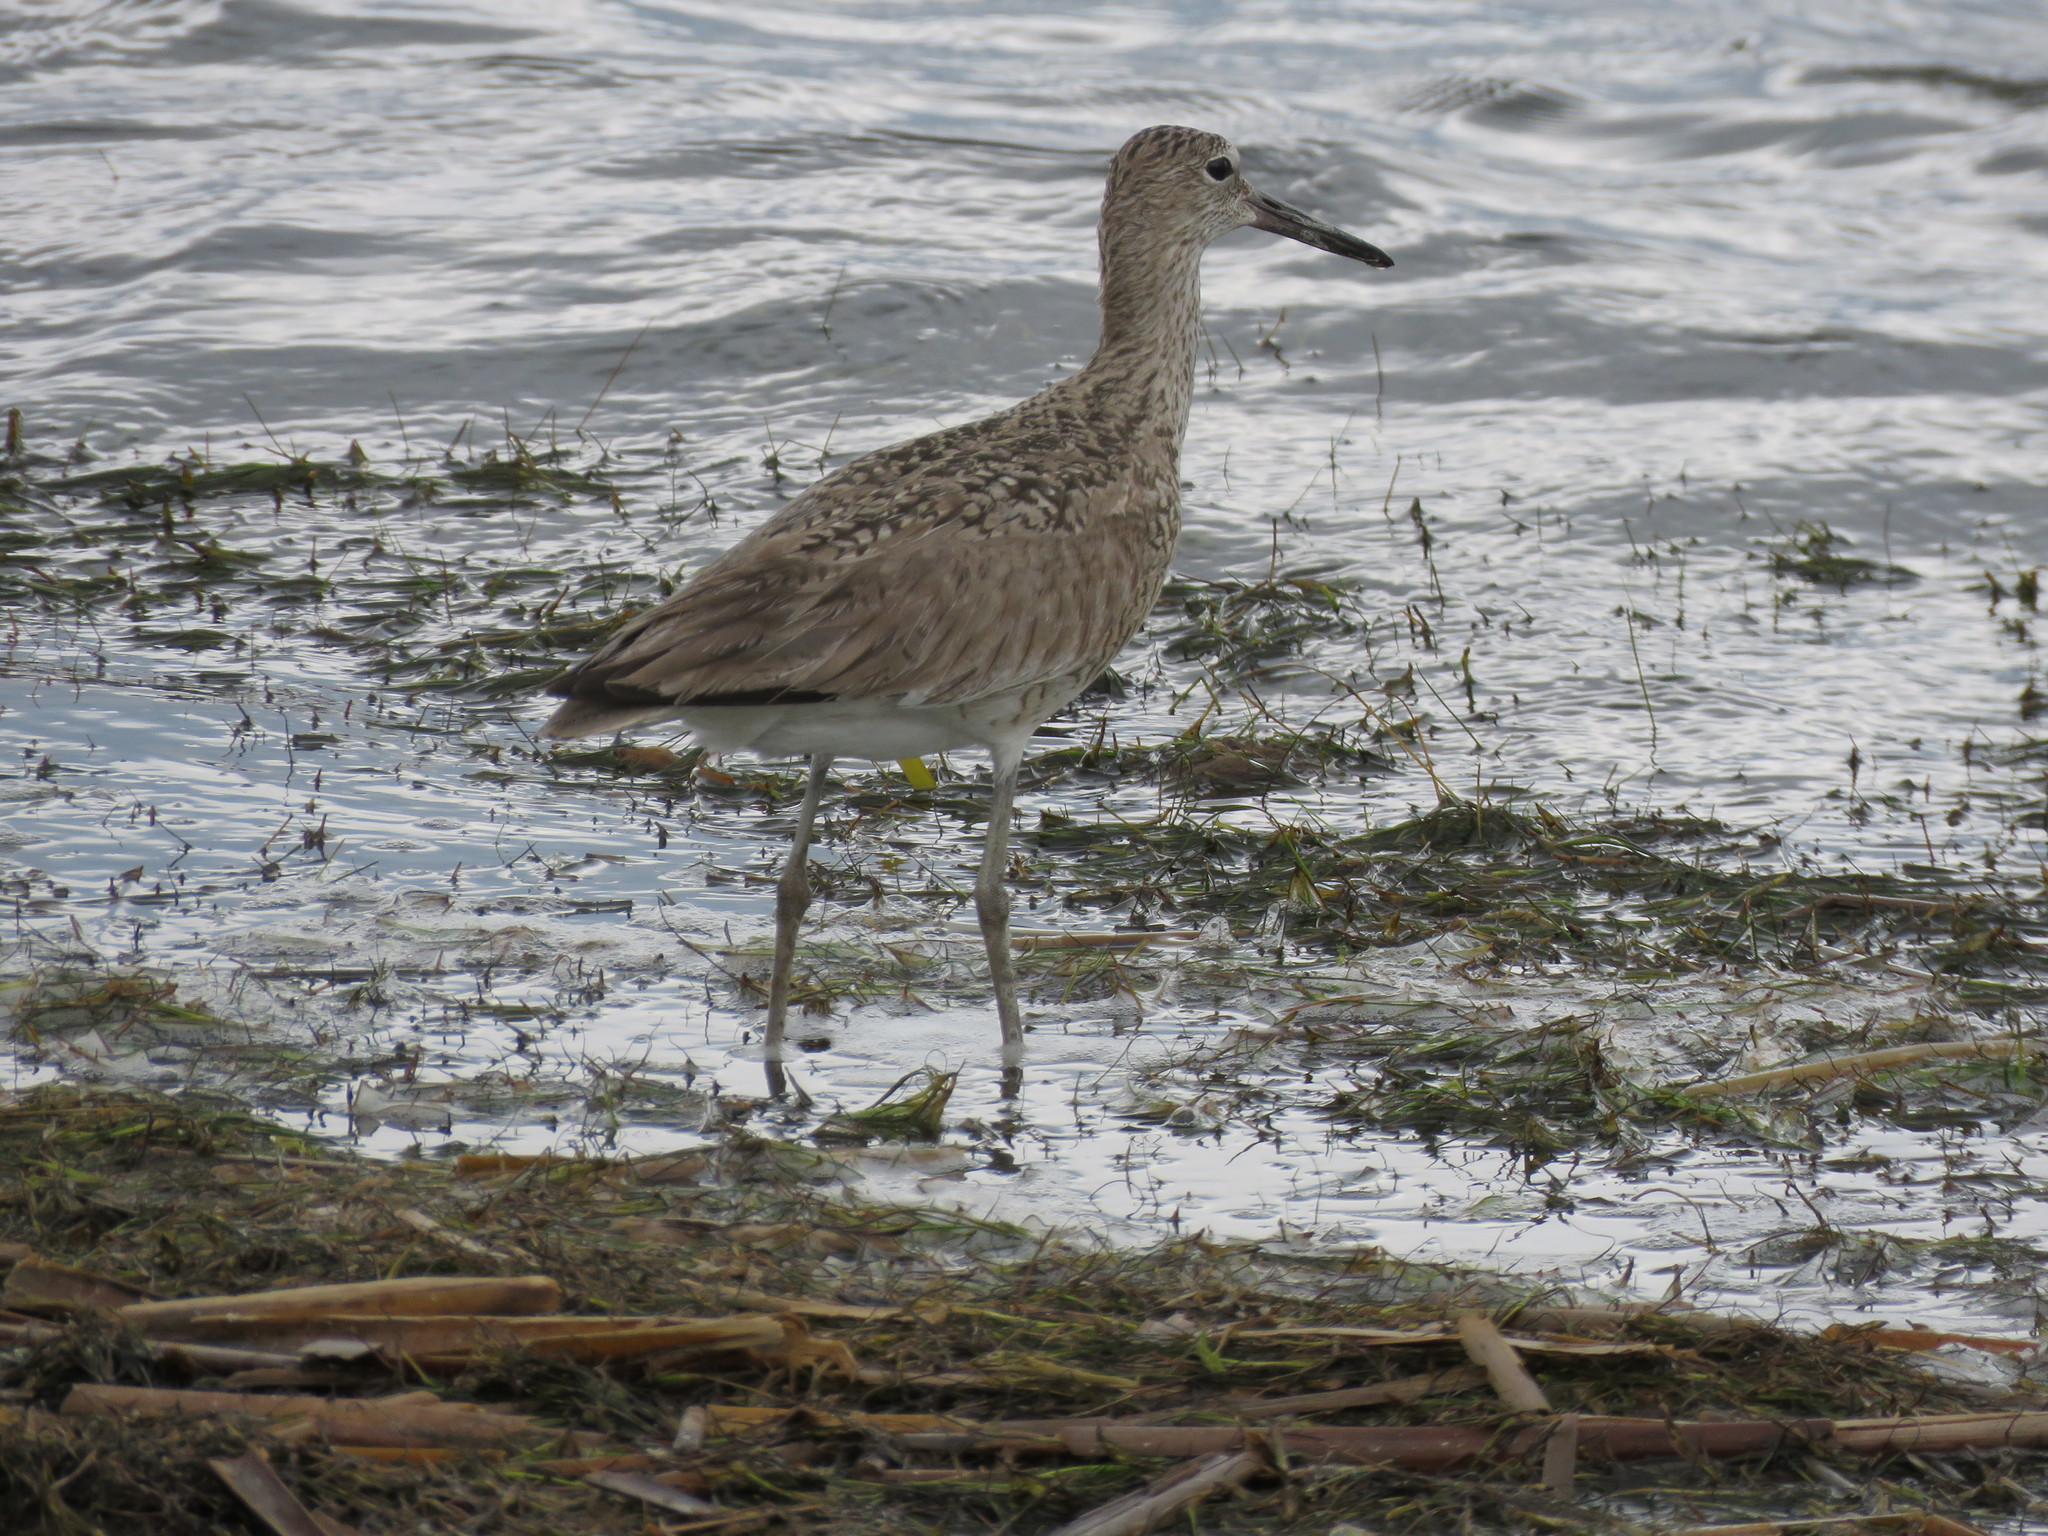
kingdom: Animalia
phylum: Chordata
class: Aves
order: Charadriiformes
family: Scolopacidae
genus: Tringa
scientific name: Tringa semipalmata
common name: Willet
